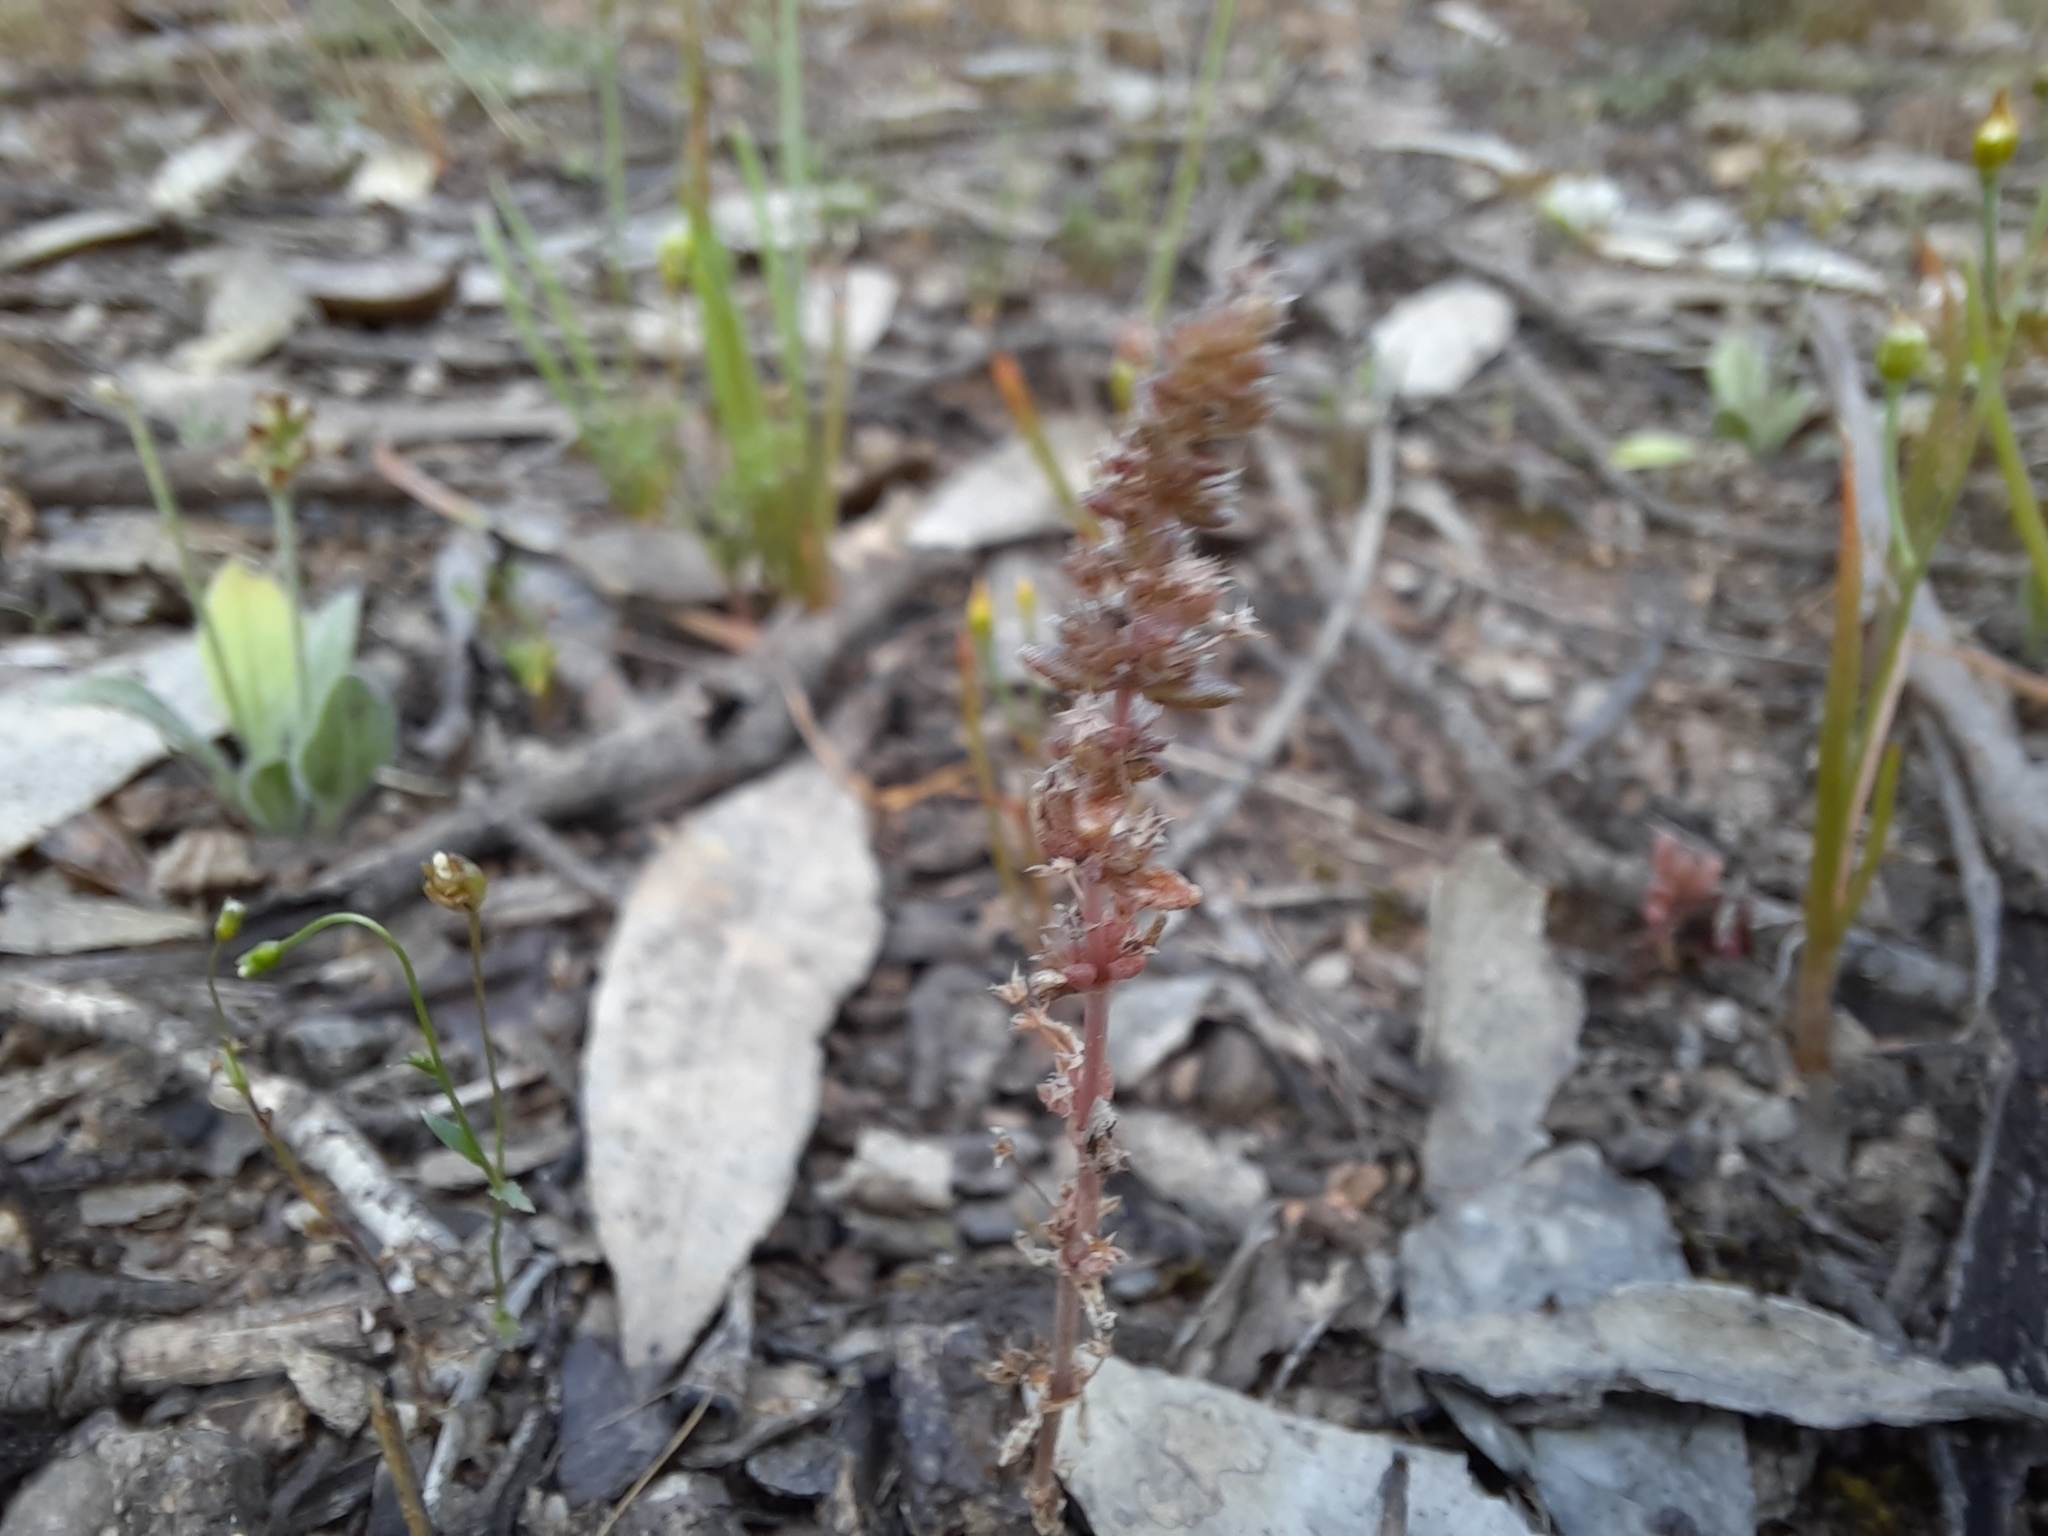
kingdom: Plantae
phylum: Tracheophyta
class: Magnoliopsida
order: Saxifragales
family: Crassulaceae
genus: Crassula
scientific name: Crassula sieberiana
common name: Siberian pygmyweed
